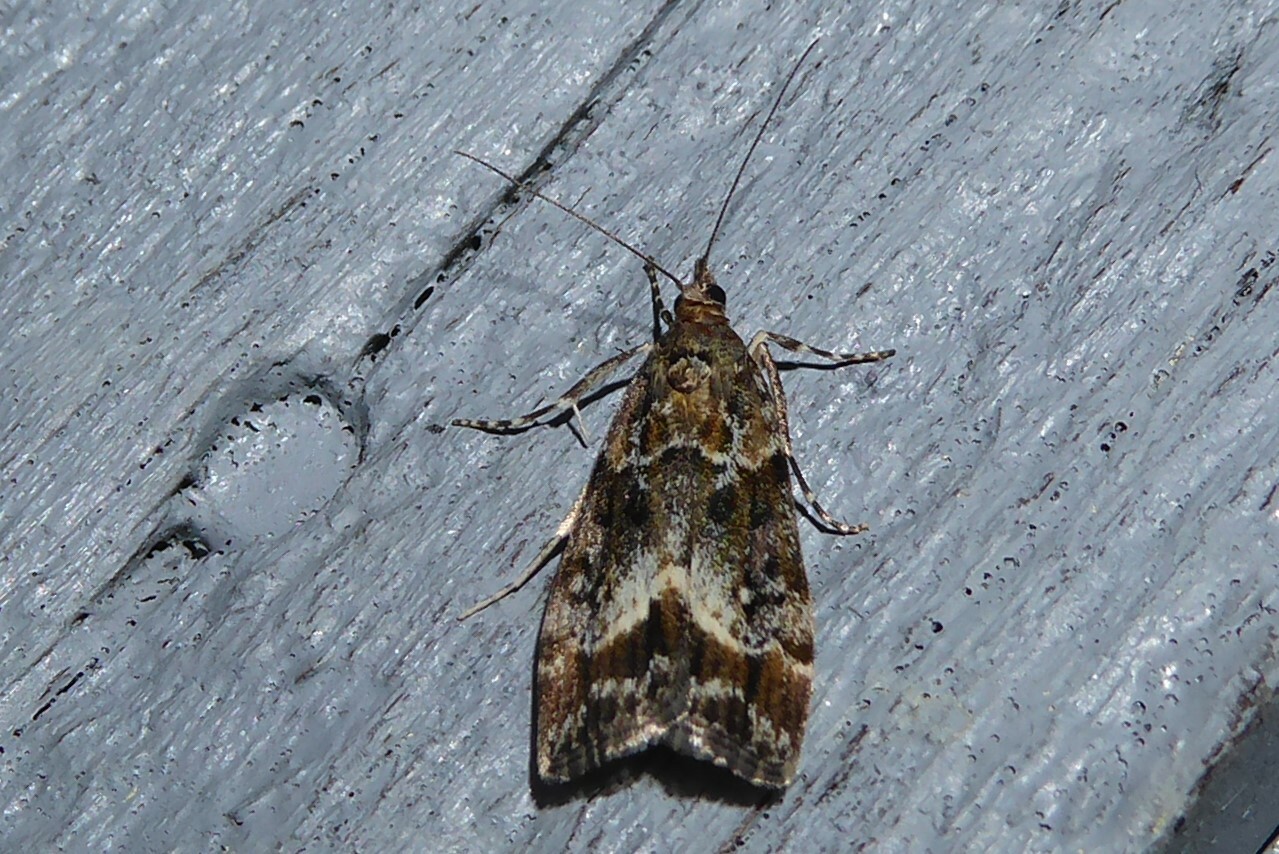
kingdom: Animalia
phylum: Arthropoda
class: Insecta
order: Lepidoptera
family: Crambidae
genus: Eudonia
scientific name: Eudonia legnota
